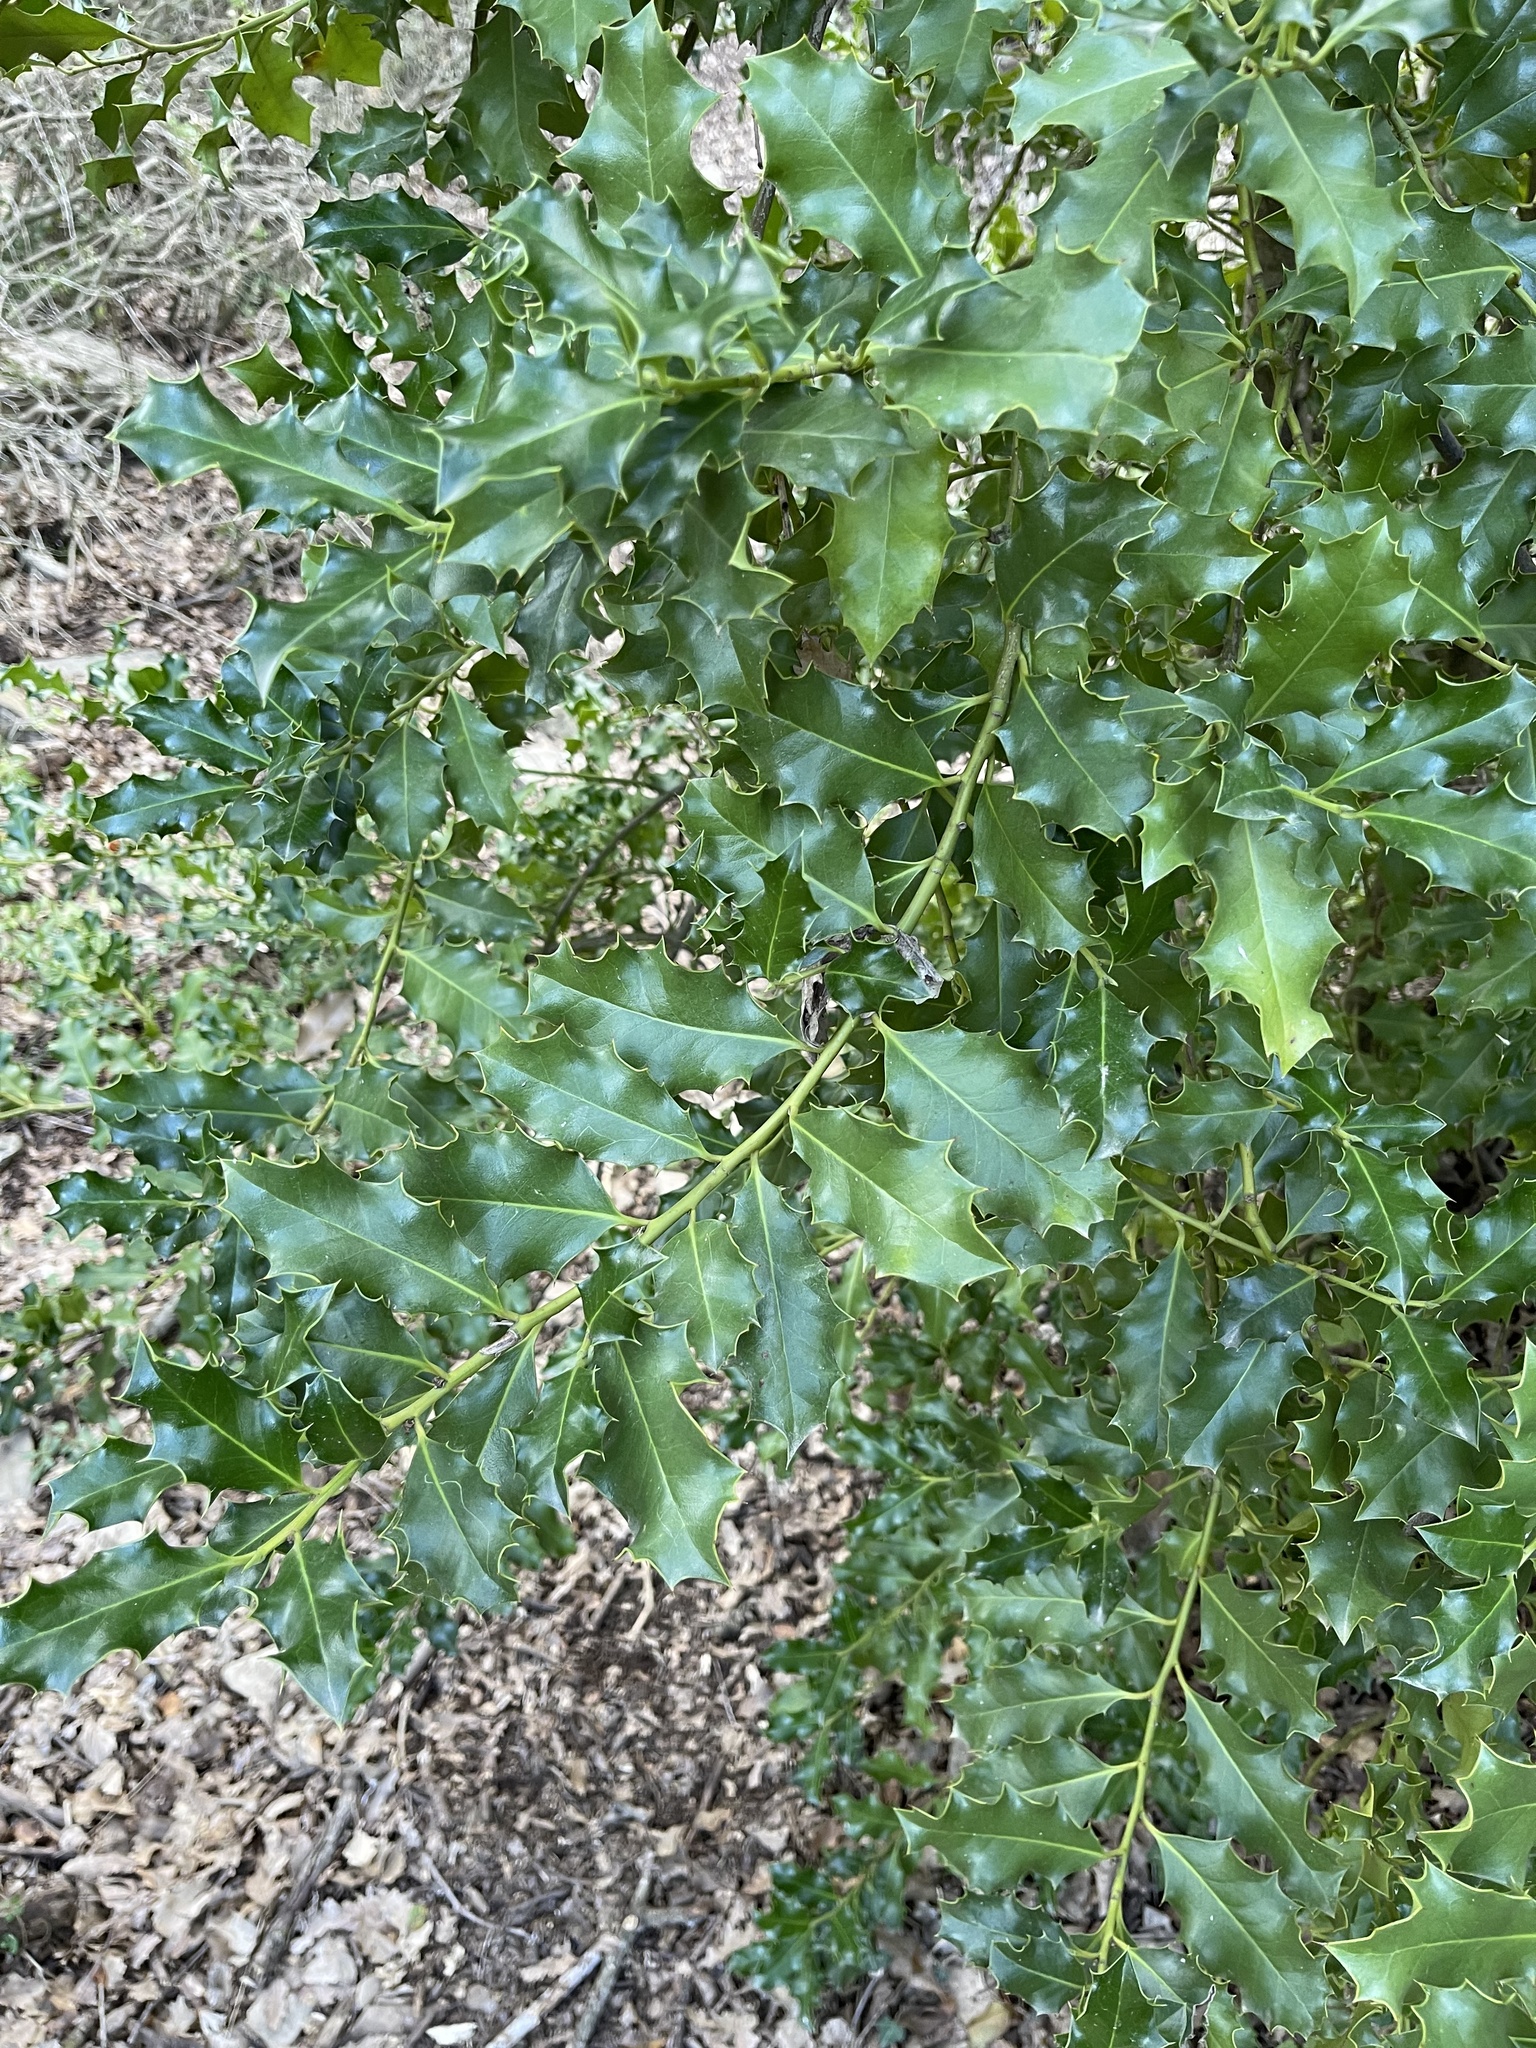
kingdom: Plantae
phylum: Tracheophyta
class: Magnoliopsida
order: Aquifoliales
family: Aquifoliaceae
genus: Ilex
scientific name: Ilex aquifolium
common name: English holly
